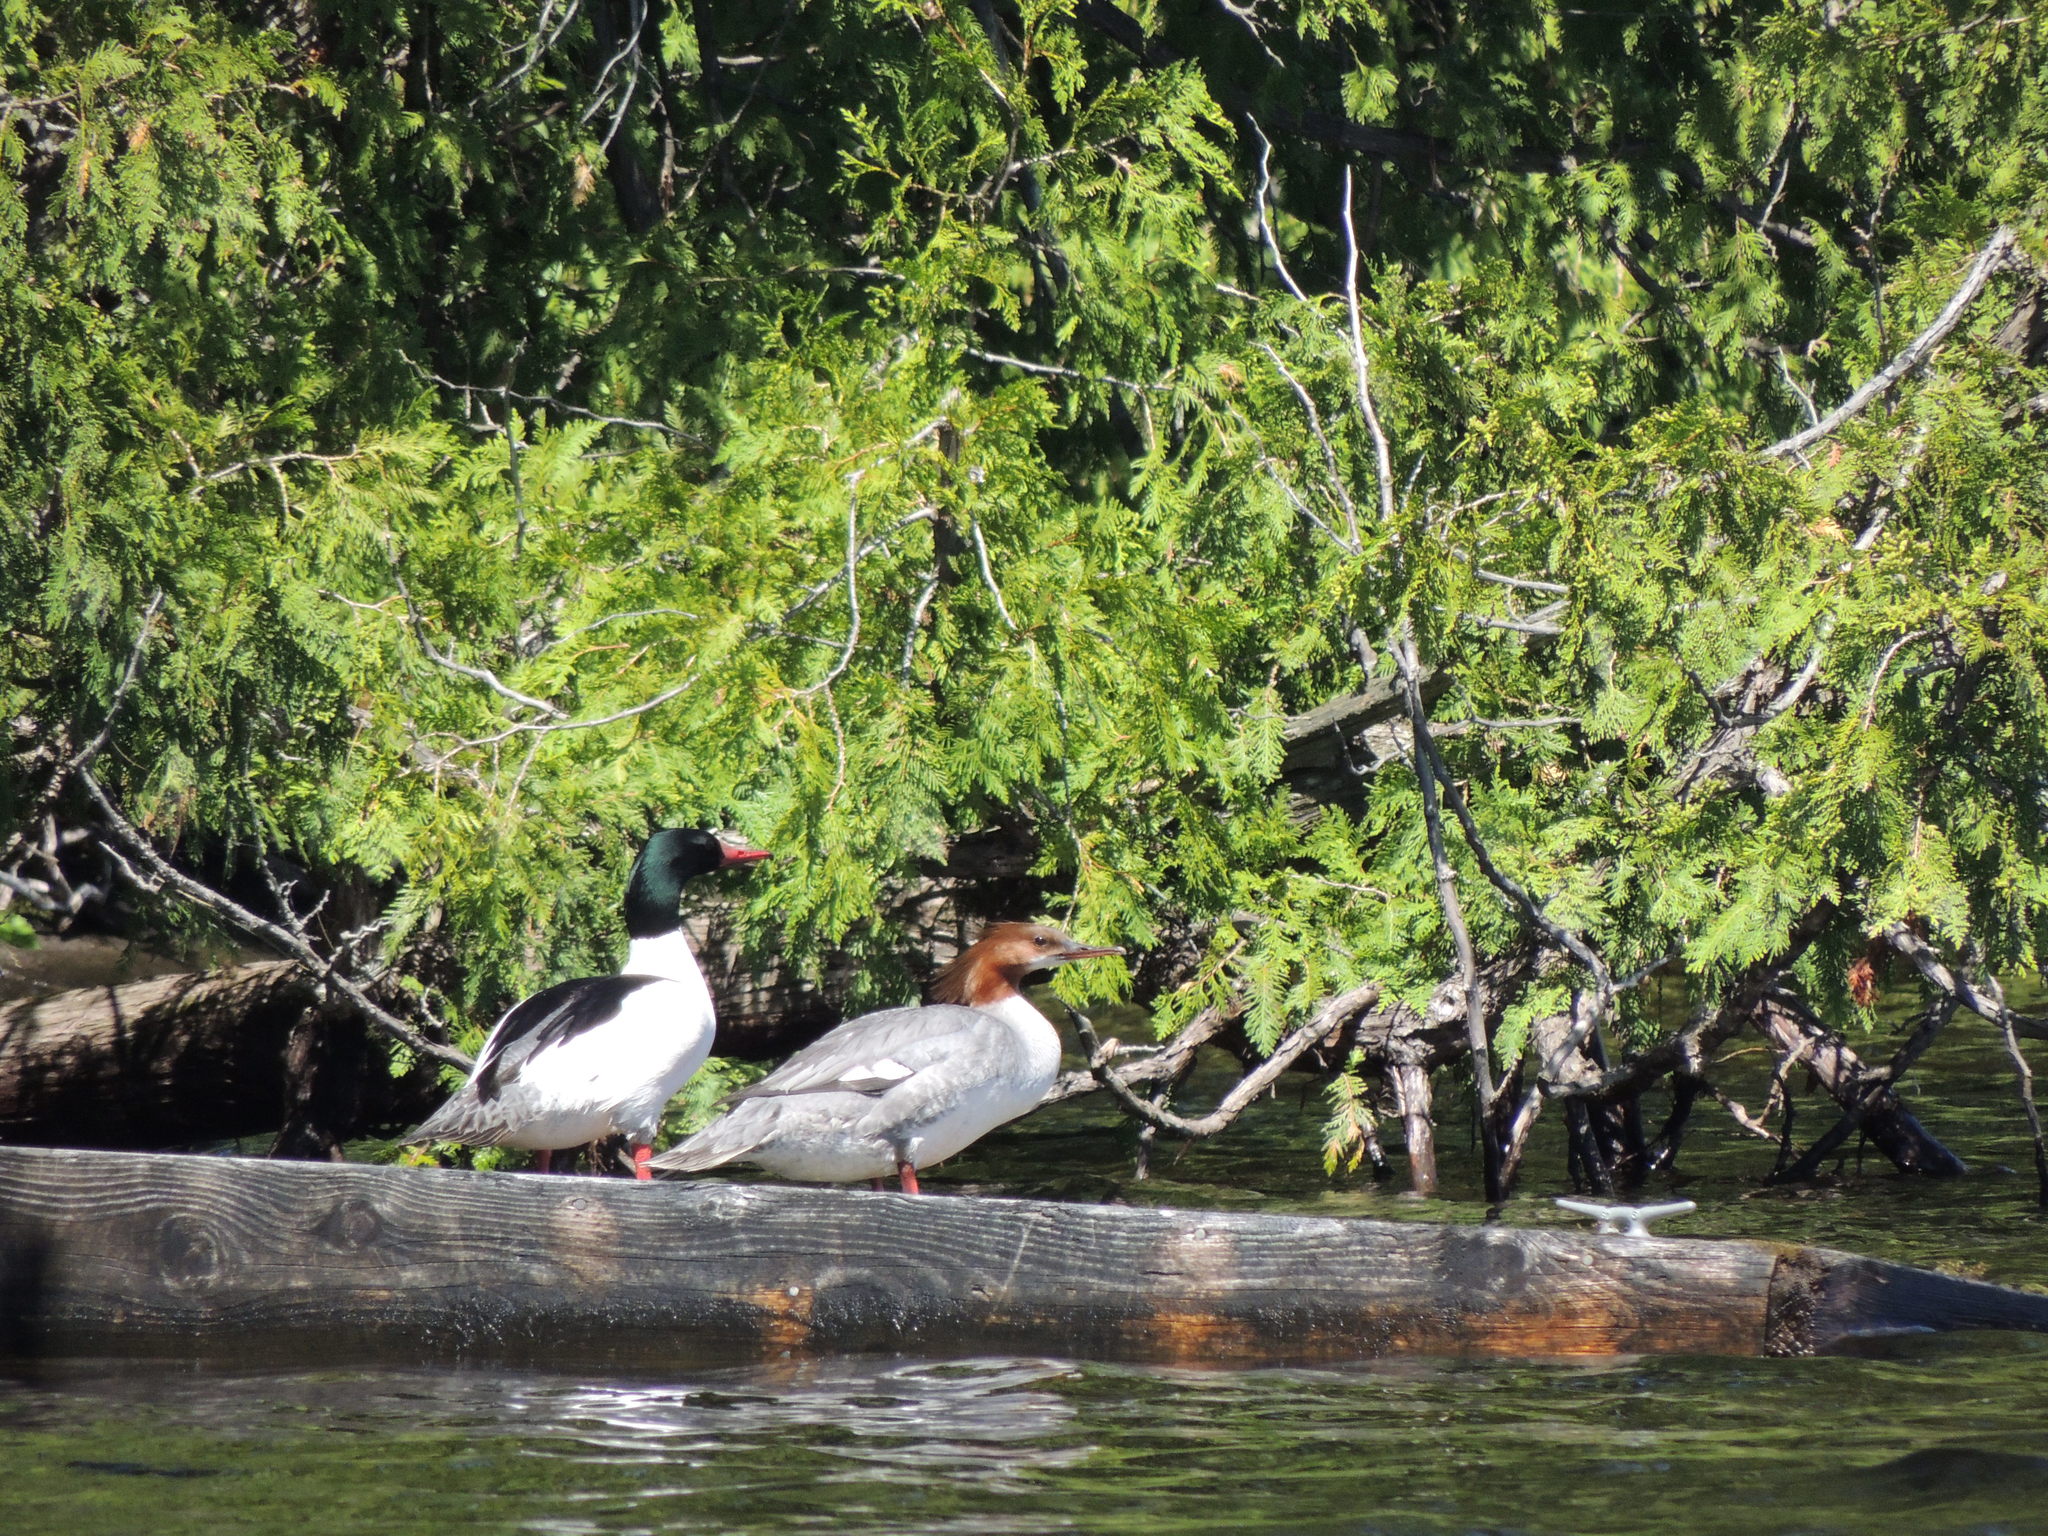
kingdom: Animalia
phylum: Chordata
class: Aves
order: Anseriformes
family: Anatidae
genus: Mergus
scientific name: Mergus merganser
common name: Common merganser
